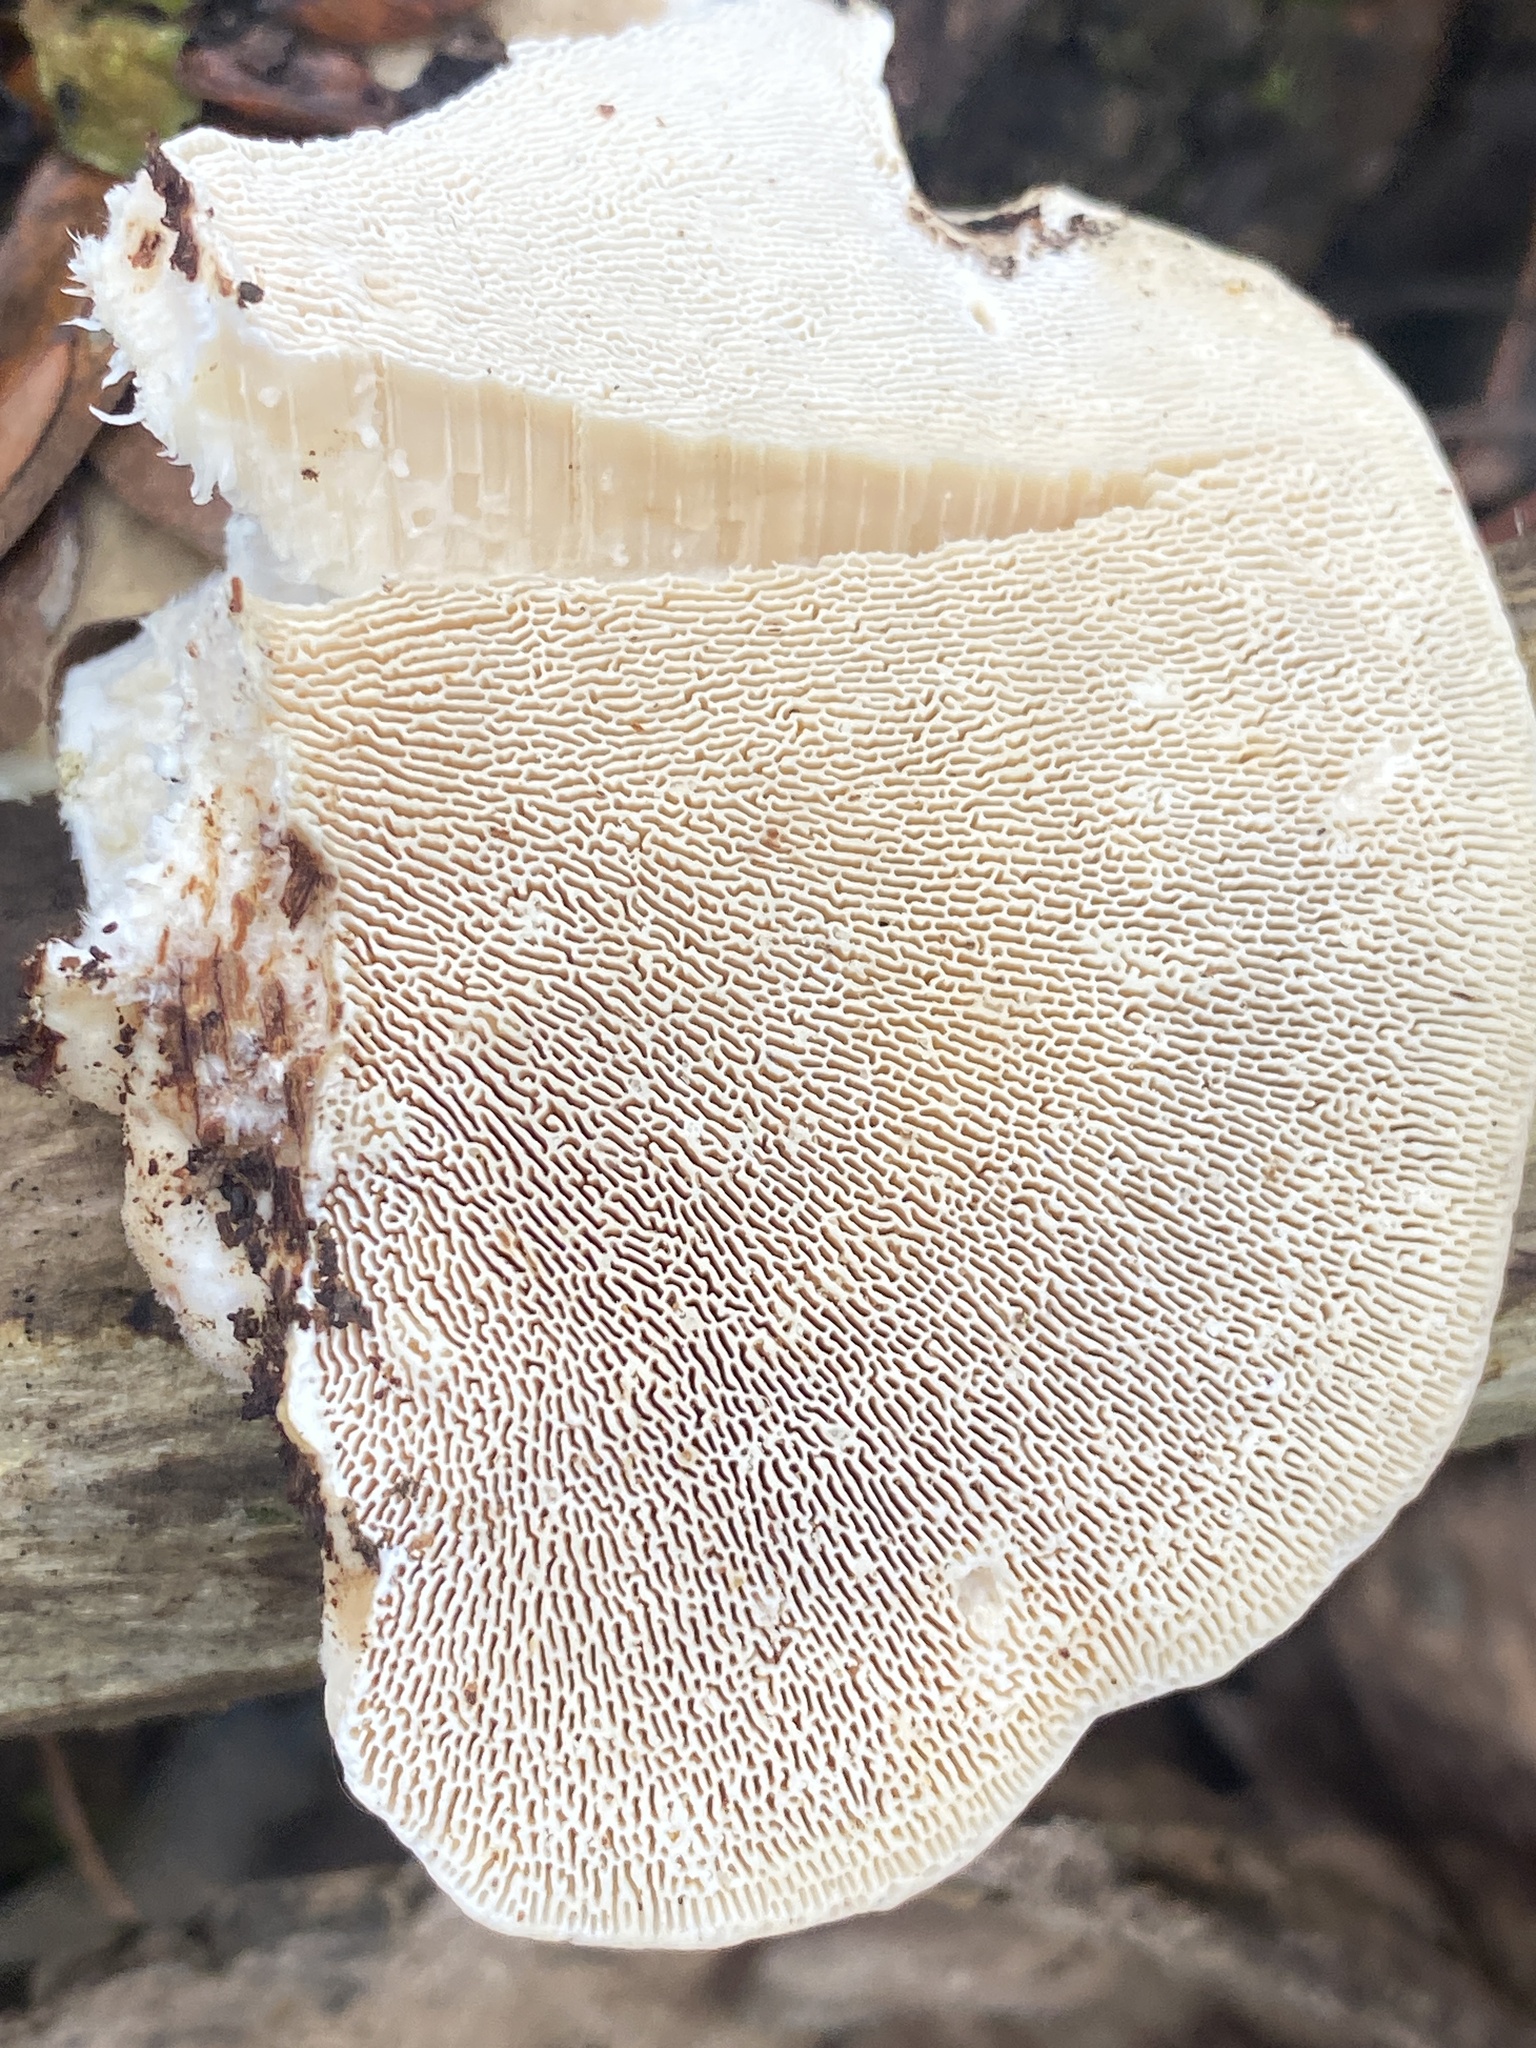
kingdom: Fungi
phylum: Basidiomycota
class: Agaricomycetes
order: Polyporales
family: Polyporaceae
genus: Trametes
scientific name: Trametes gibbosa
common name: Lumpy bracket
